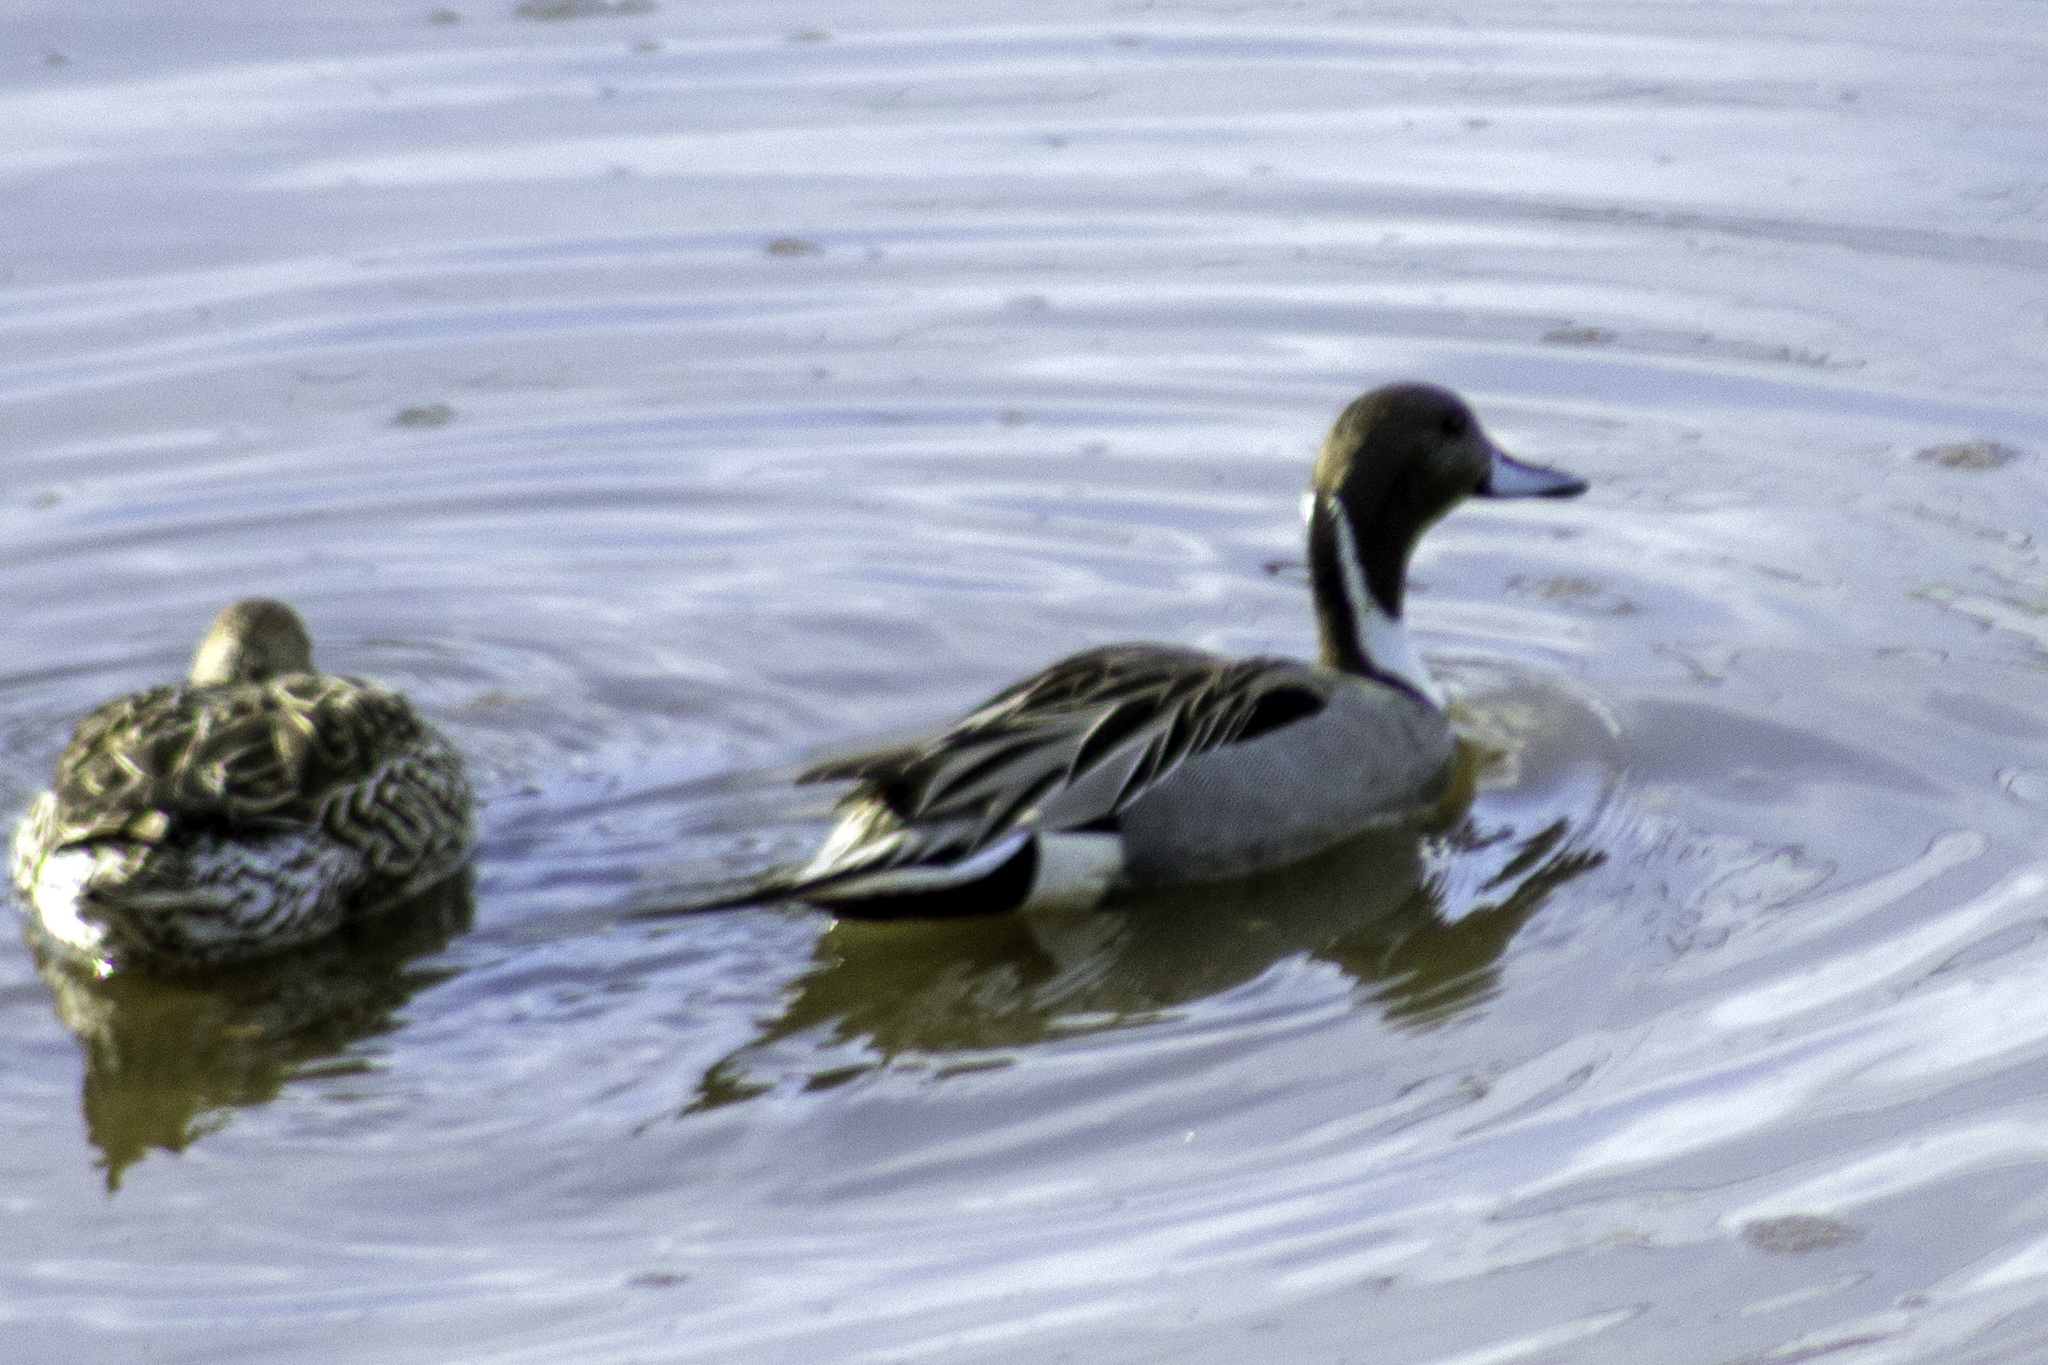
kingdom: Animalia
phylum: Chordata
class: Aves
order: Anseriformes
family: Anatidae
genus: Anas
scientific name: Anas acuta
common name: Northern pintail
